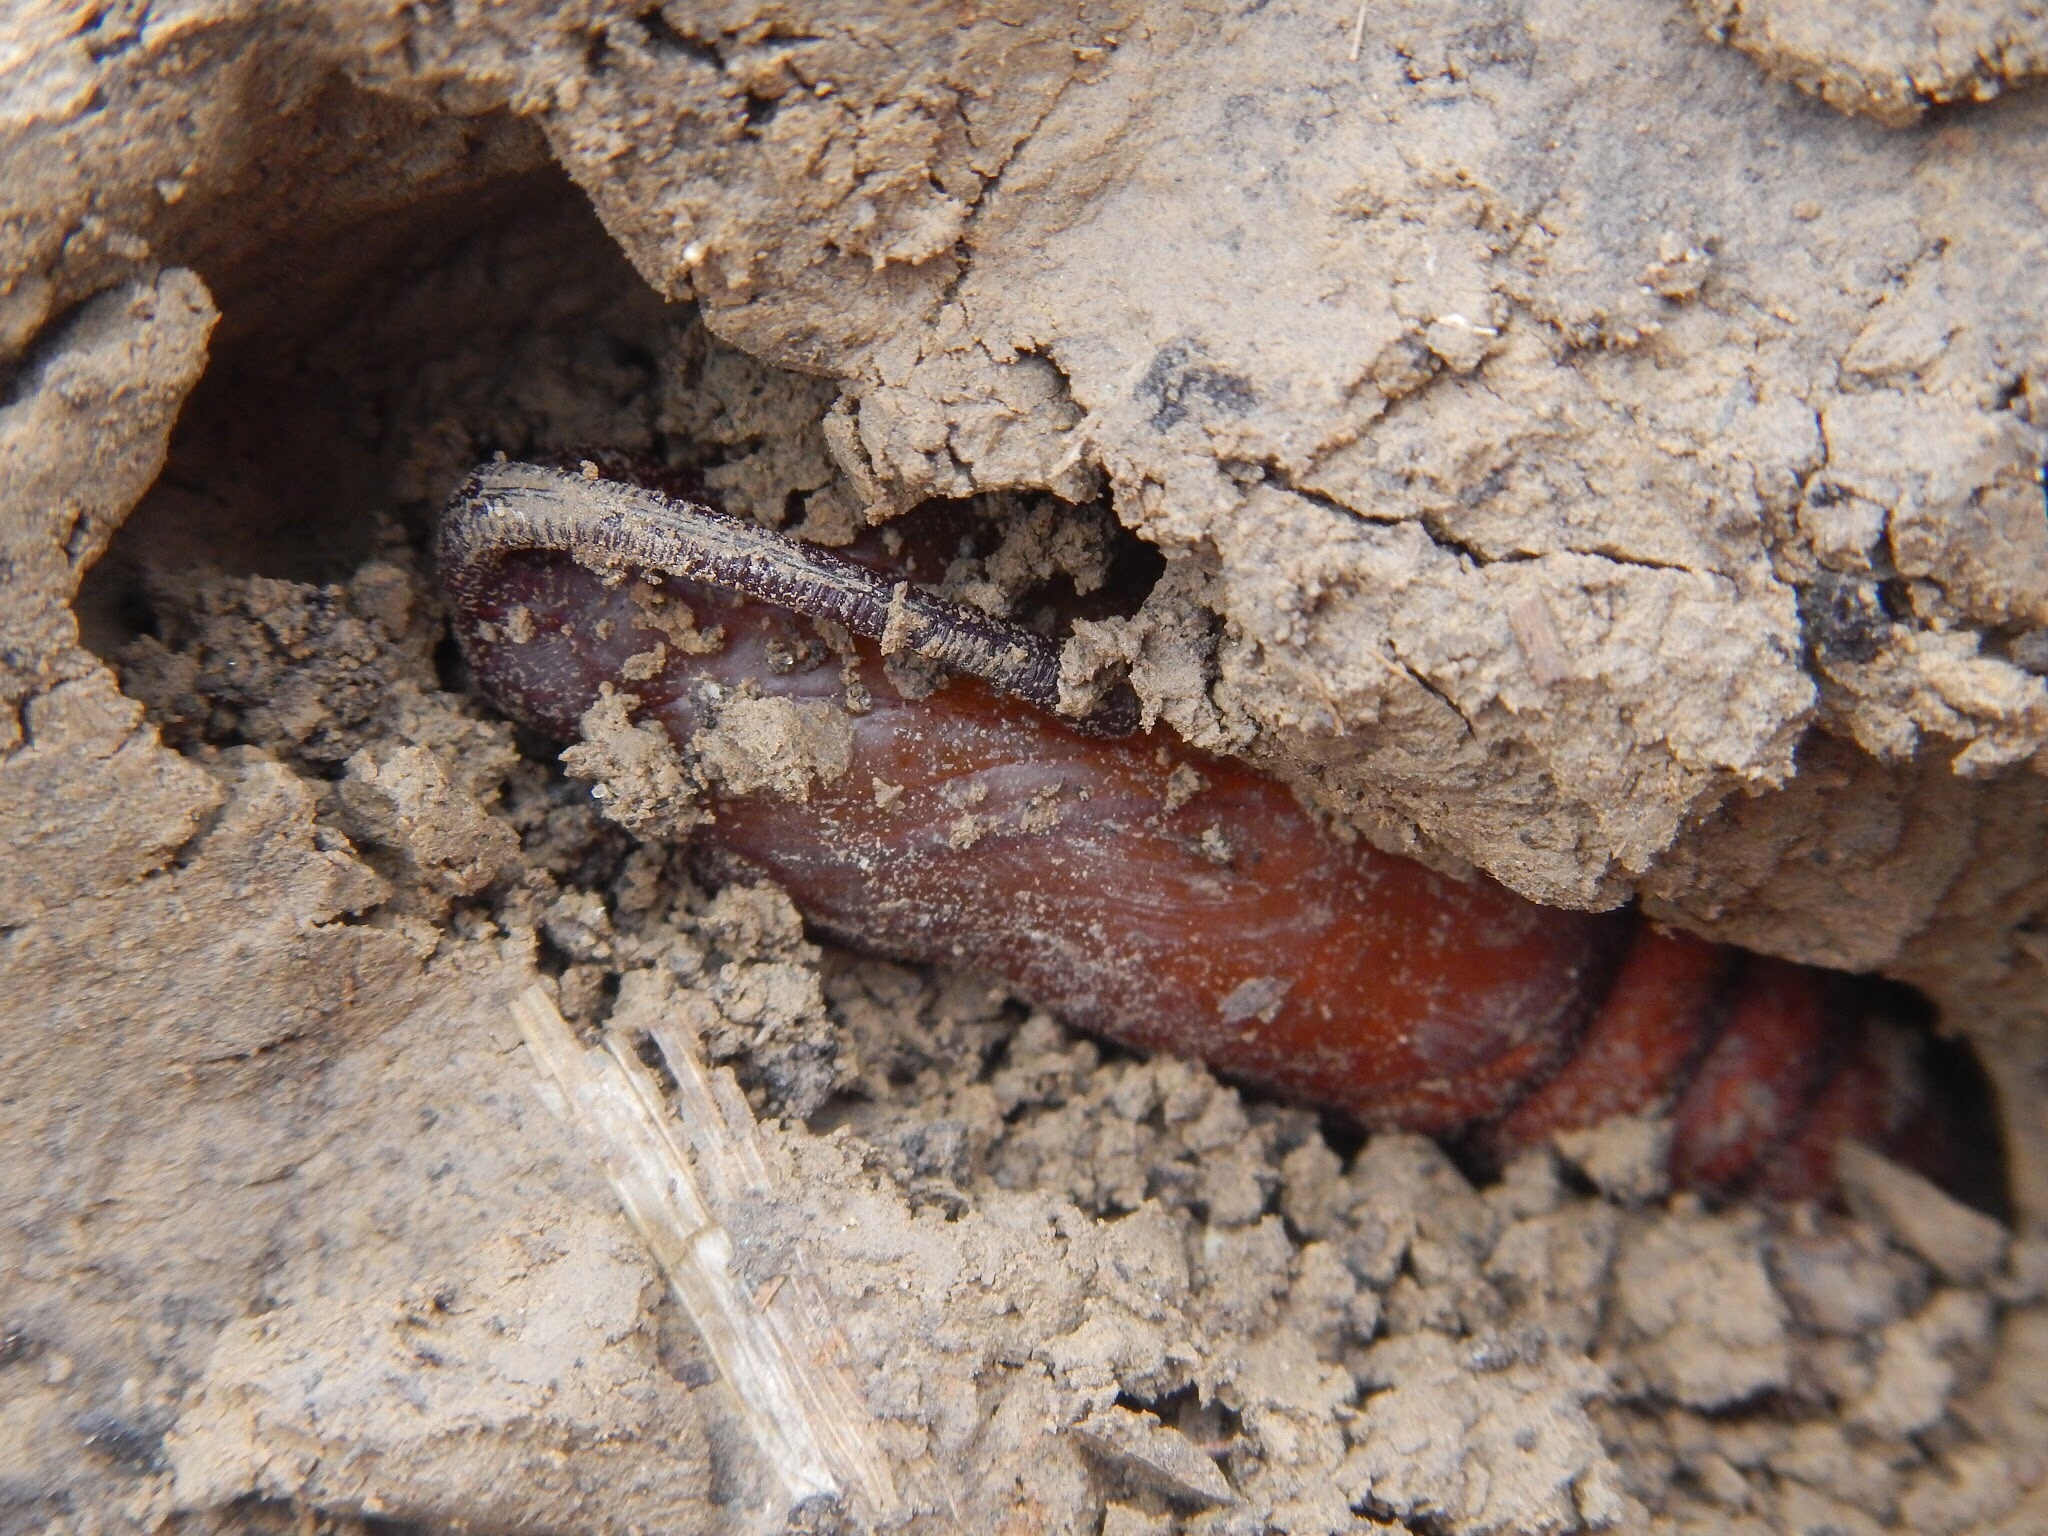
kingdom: Animalia
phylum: Arthropoda
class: Insecta
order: Lepidoptera
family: Sphingidae
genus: Manduca
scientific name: Manduca sexta
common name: Carolina sphinx
